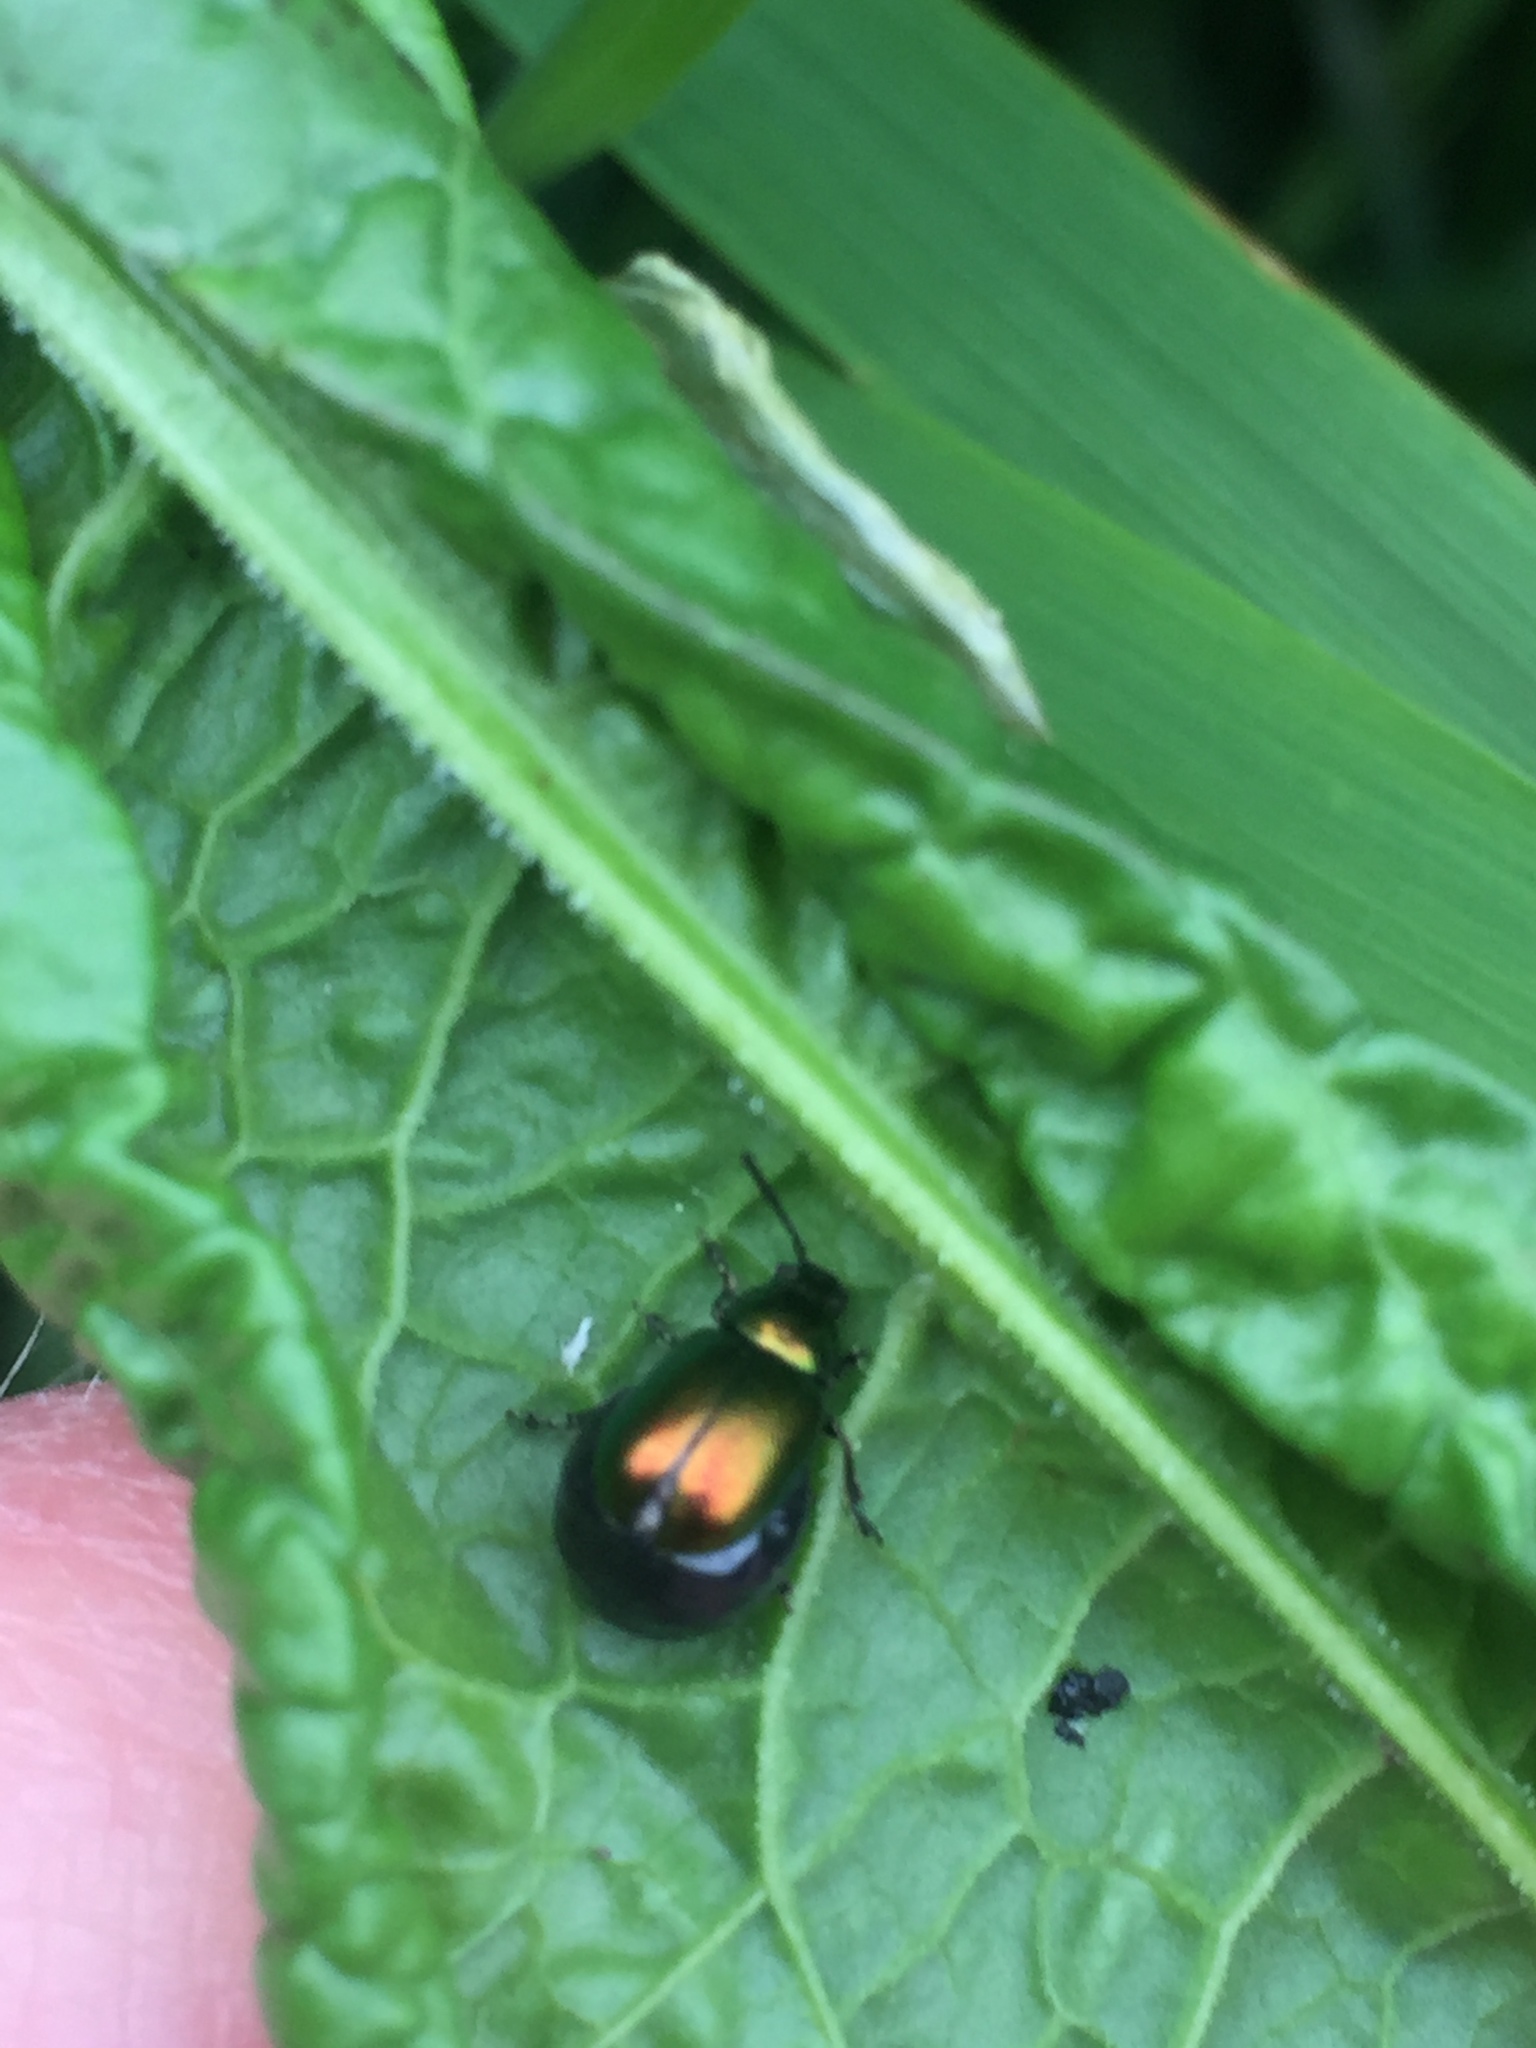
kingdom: Animalia
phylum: Arthropoda
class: Insecta
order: Coleoptera
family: Chrysomelidae
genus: Gastrophysa
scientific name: Gastrophysa viridula
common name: Green dock beetle
